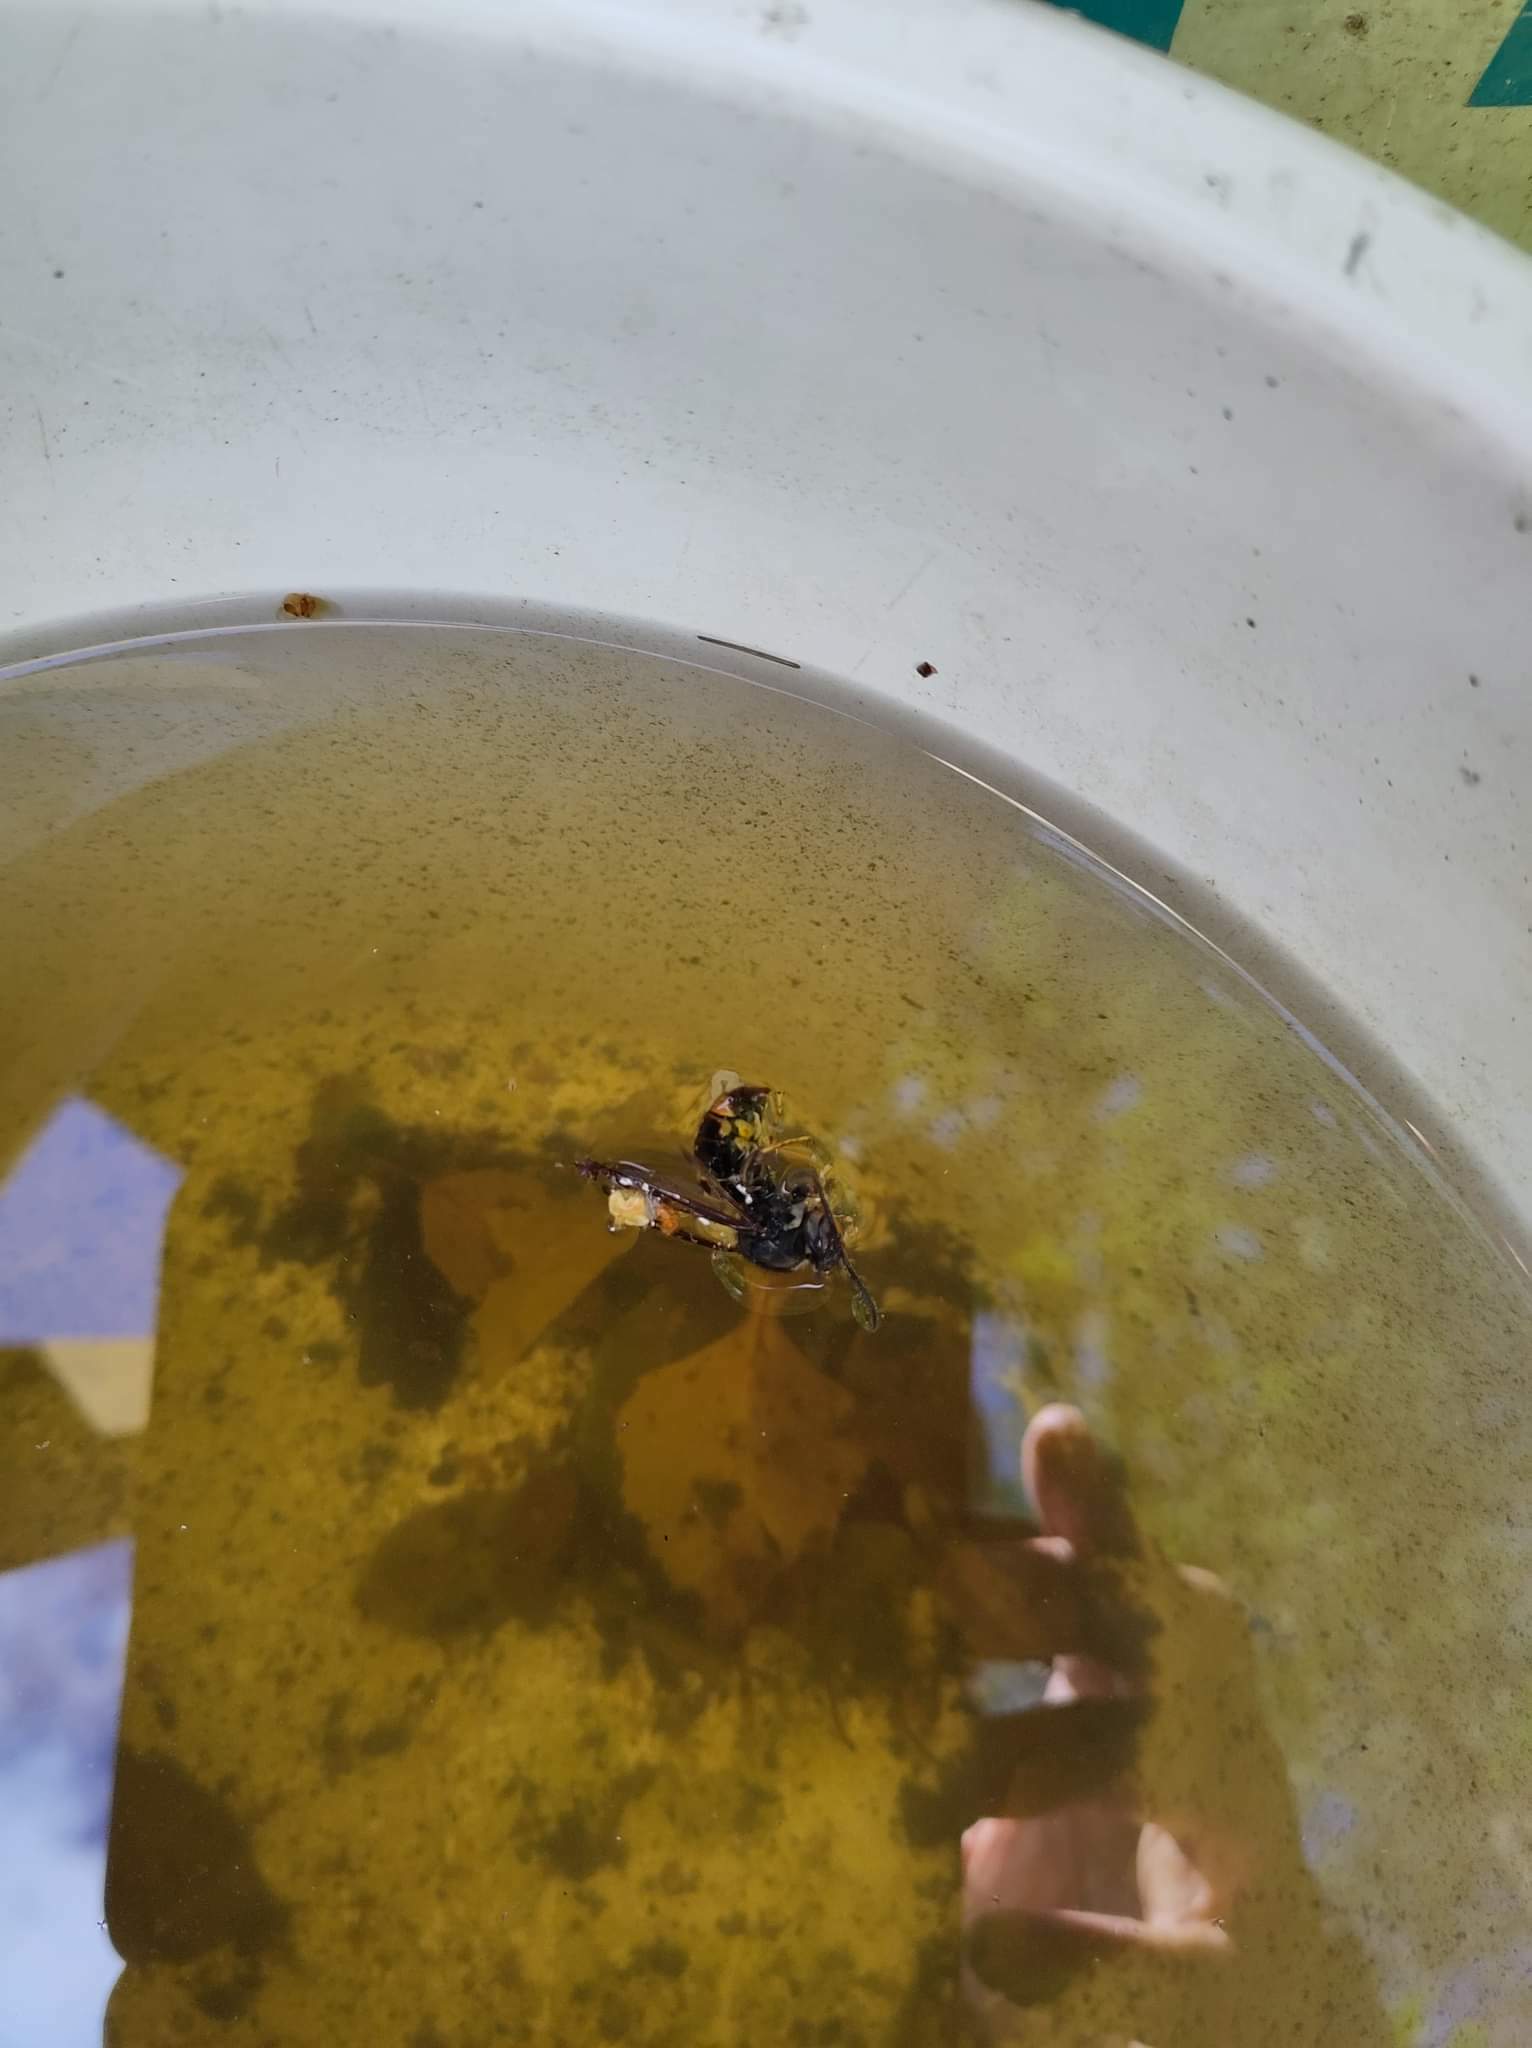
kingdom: Animalia
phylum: Arthropoda
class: Insecta
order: Hymenoptera
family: Vespidae
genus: Vespa
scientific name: Vespa velutina
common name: Asian hornet
